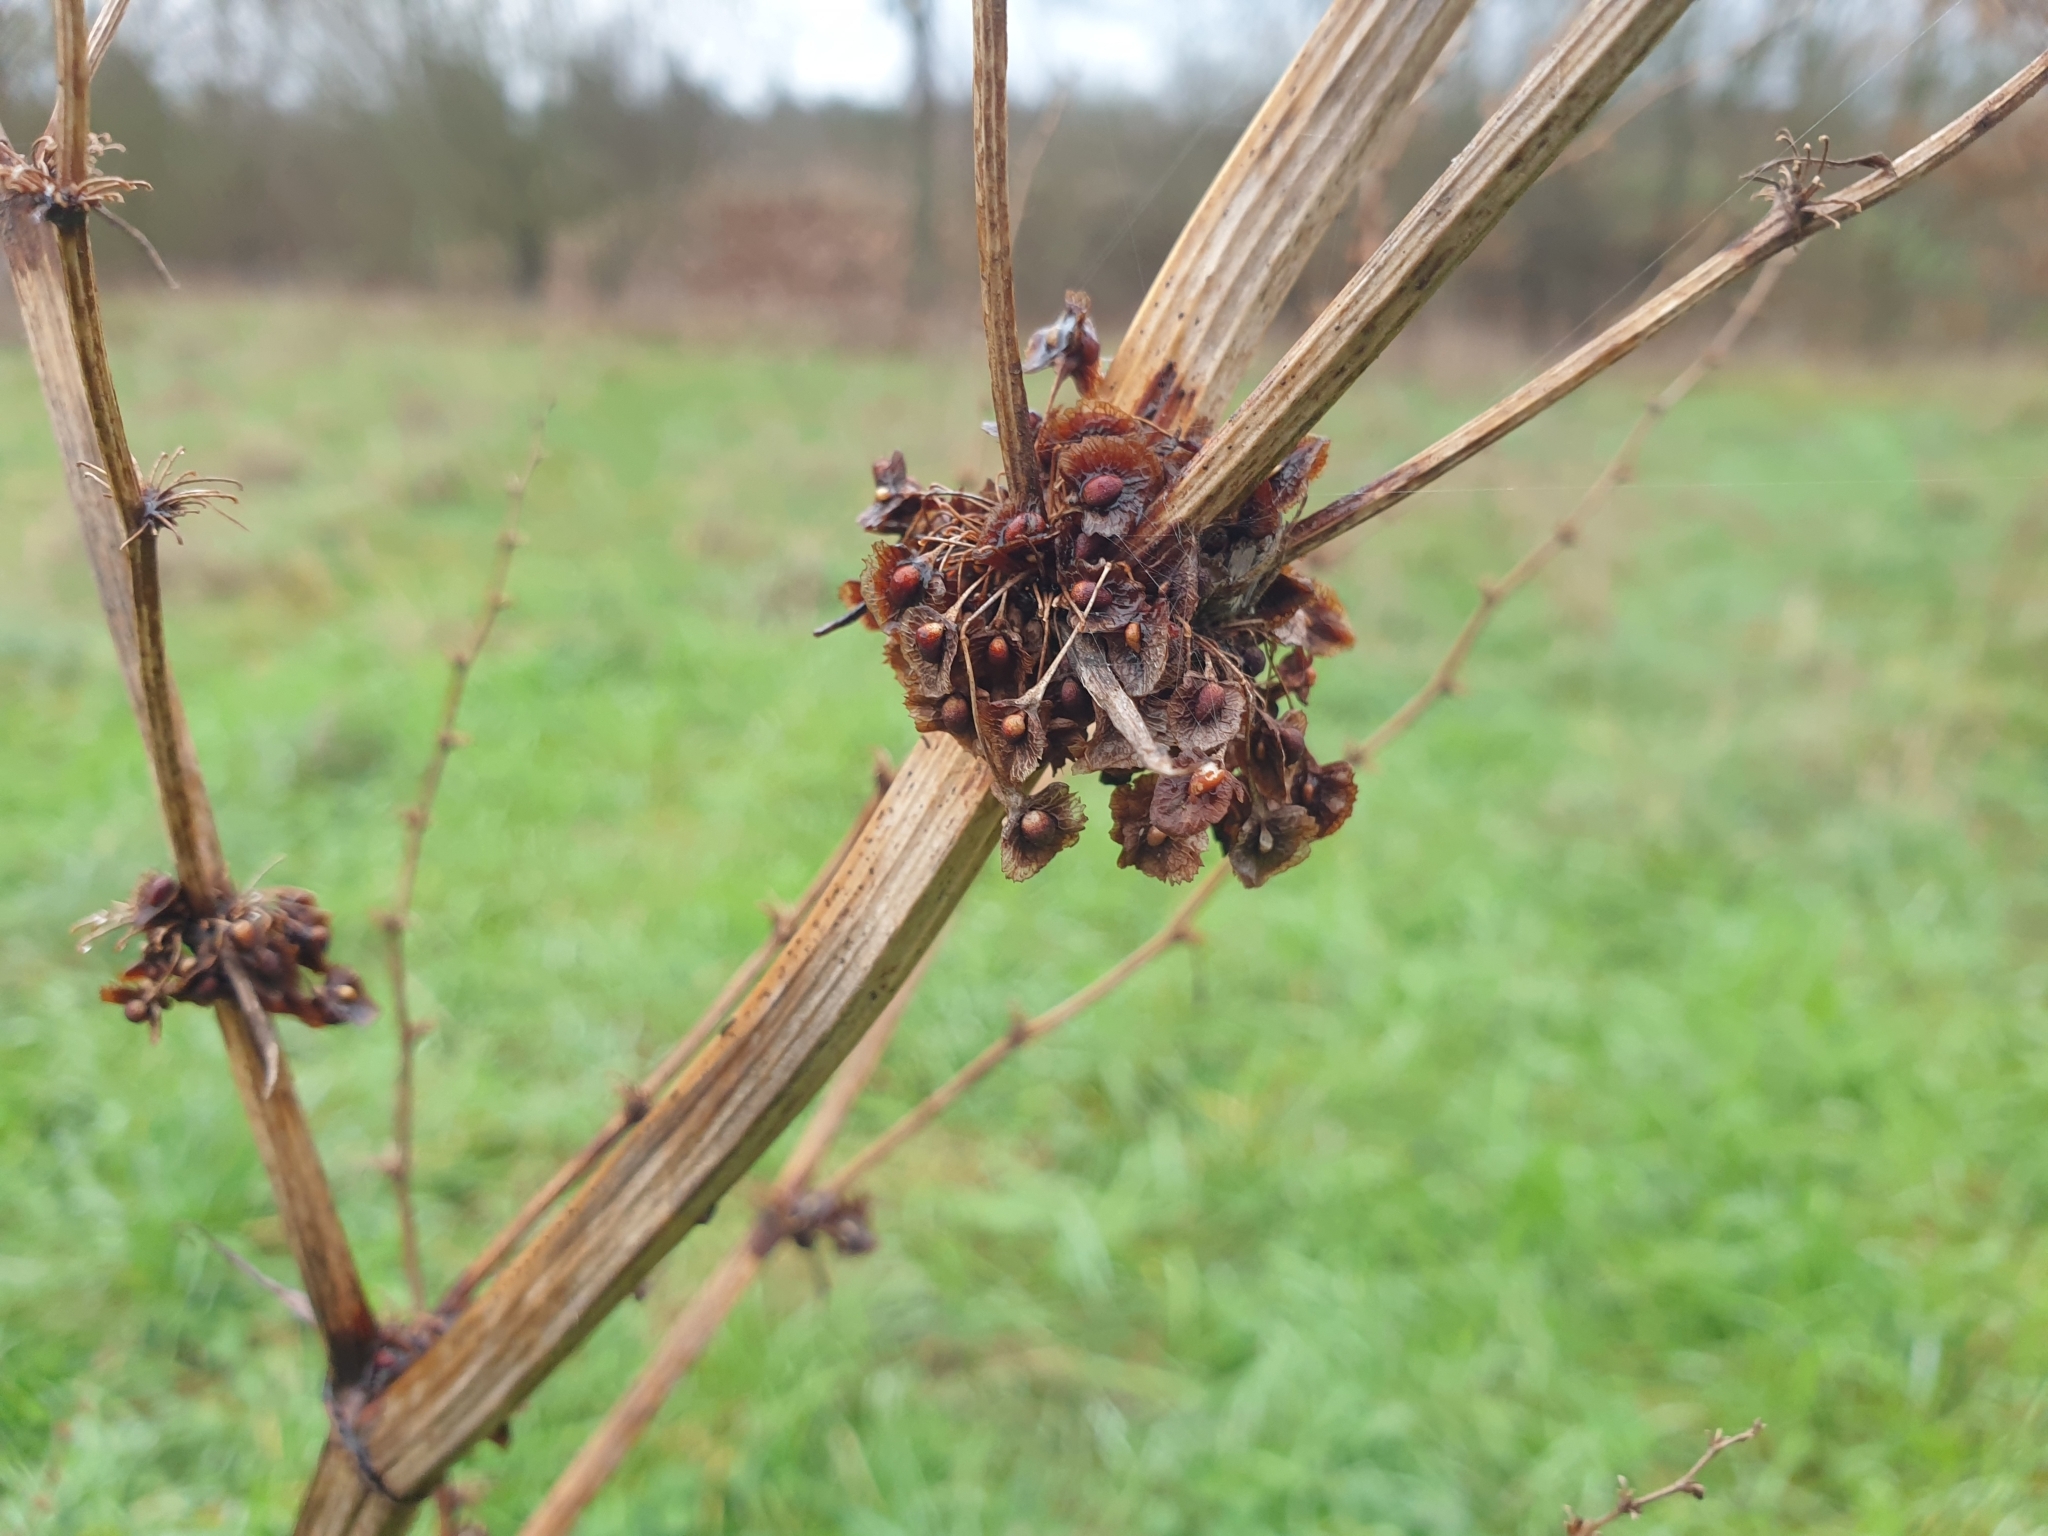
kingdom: Plantae
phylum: Tracheophyta
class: Magnoliopsida
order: Caryophyllales
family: Polygonaceae
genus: Rumex
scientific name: Rumex crispus
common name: Curled dock
